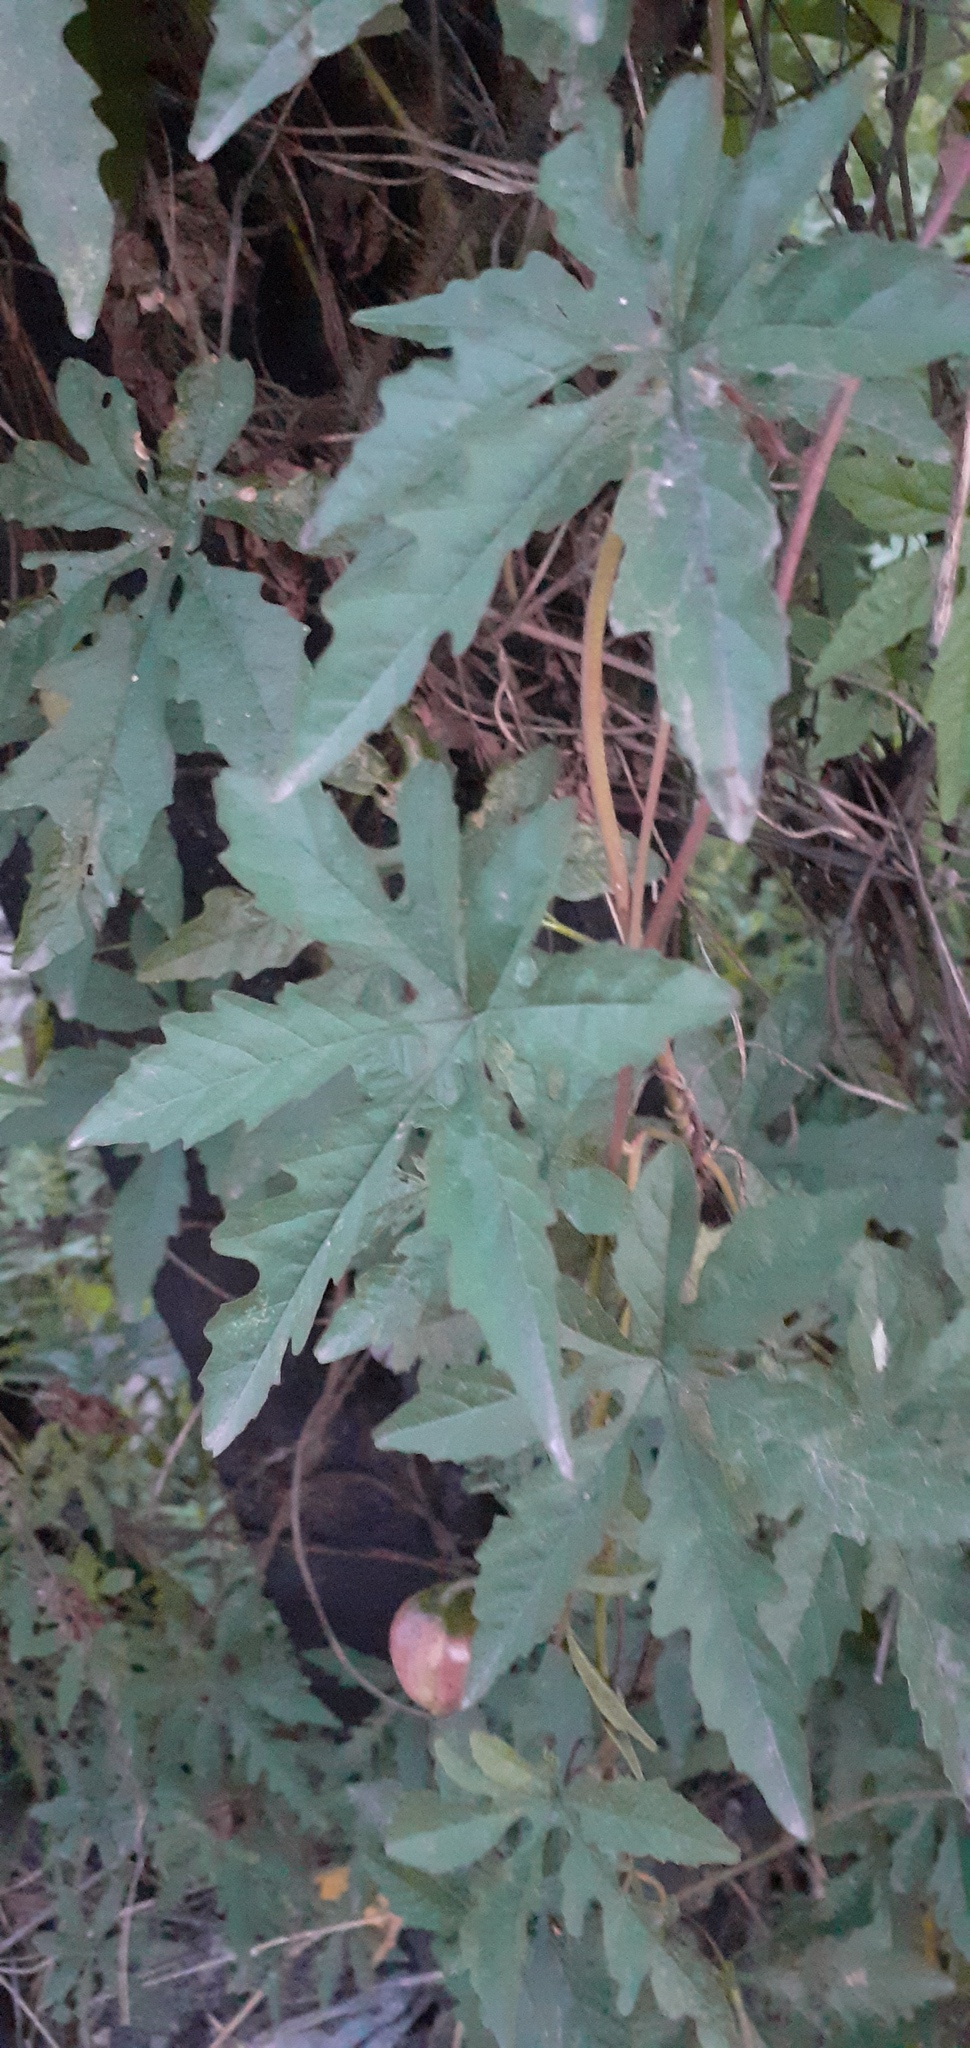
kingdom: Plantae
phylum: Tracheophyta
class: Magnoliopsida
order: Solanales
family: Convolvulaceae
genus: Distimake
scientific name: Distimake dissectus
